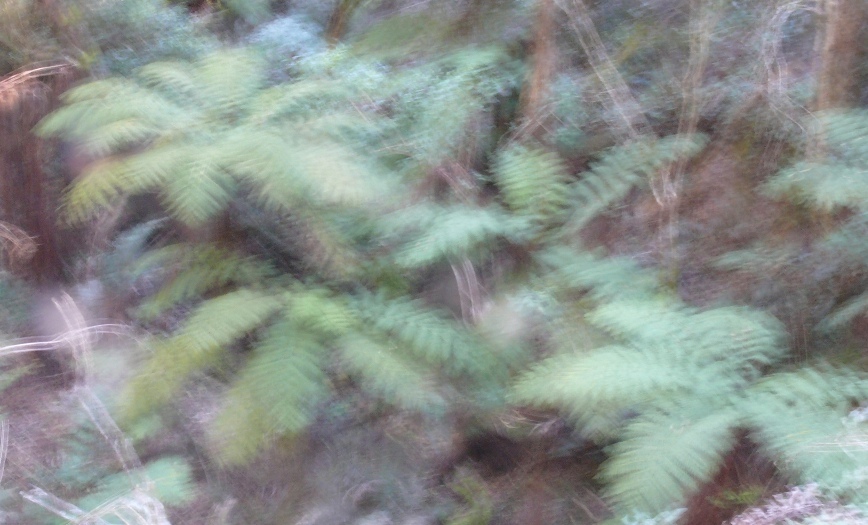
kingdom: Plantae
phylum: Tracheophyta
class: Polypodiopsida
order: Cyatheales
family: Cyatheaceae
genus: Gymnosphaera
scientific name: Gymnosphaera capensis
